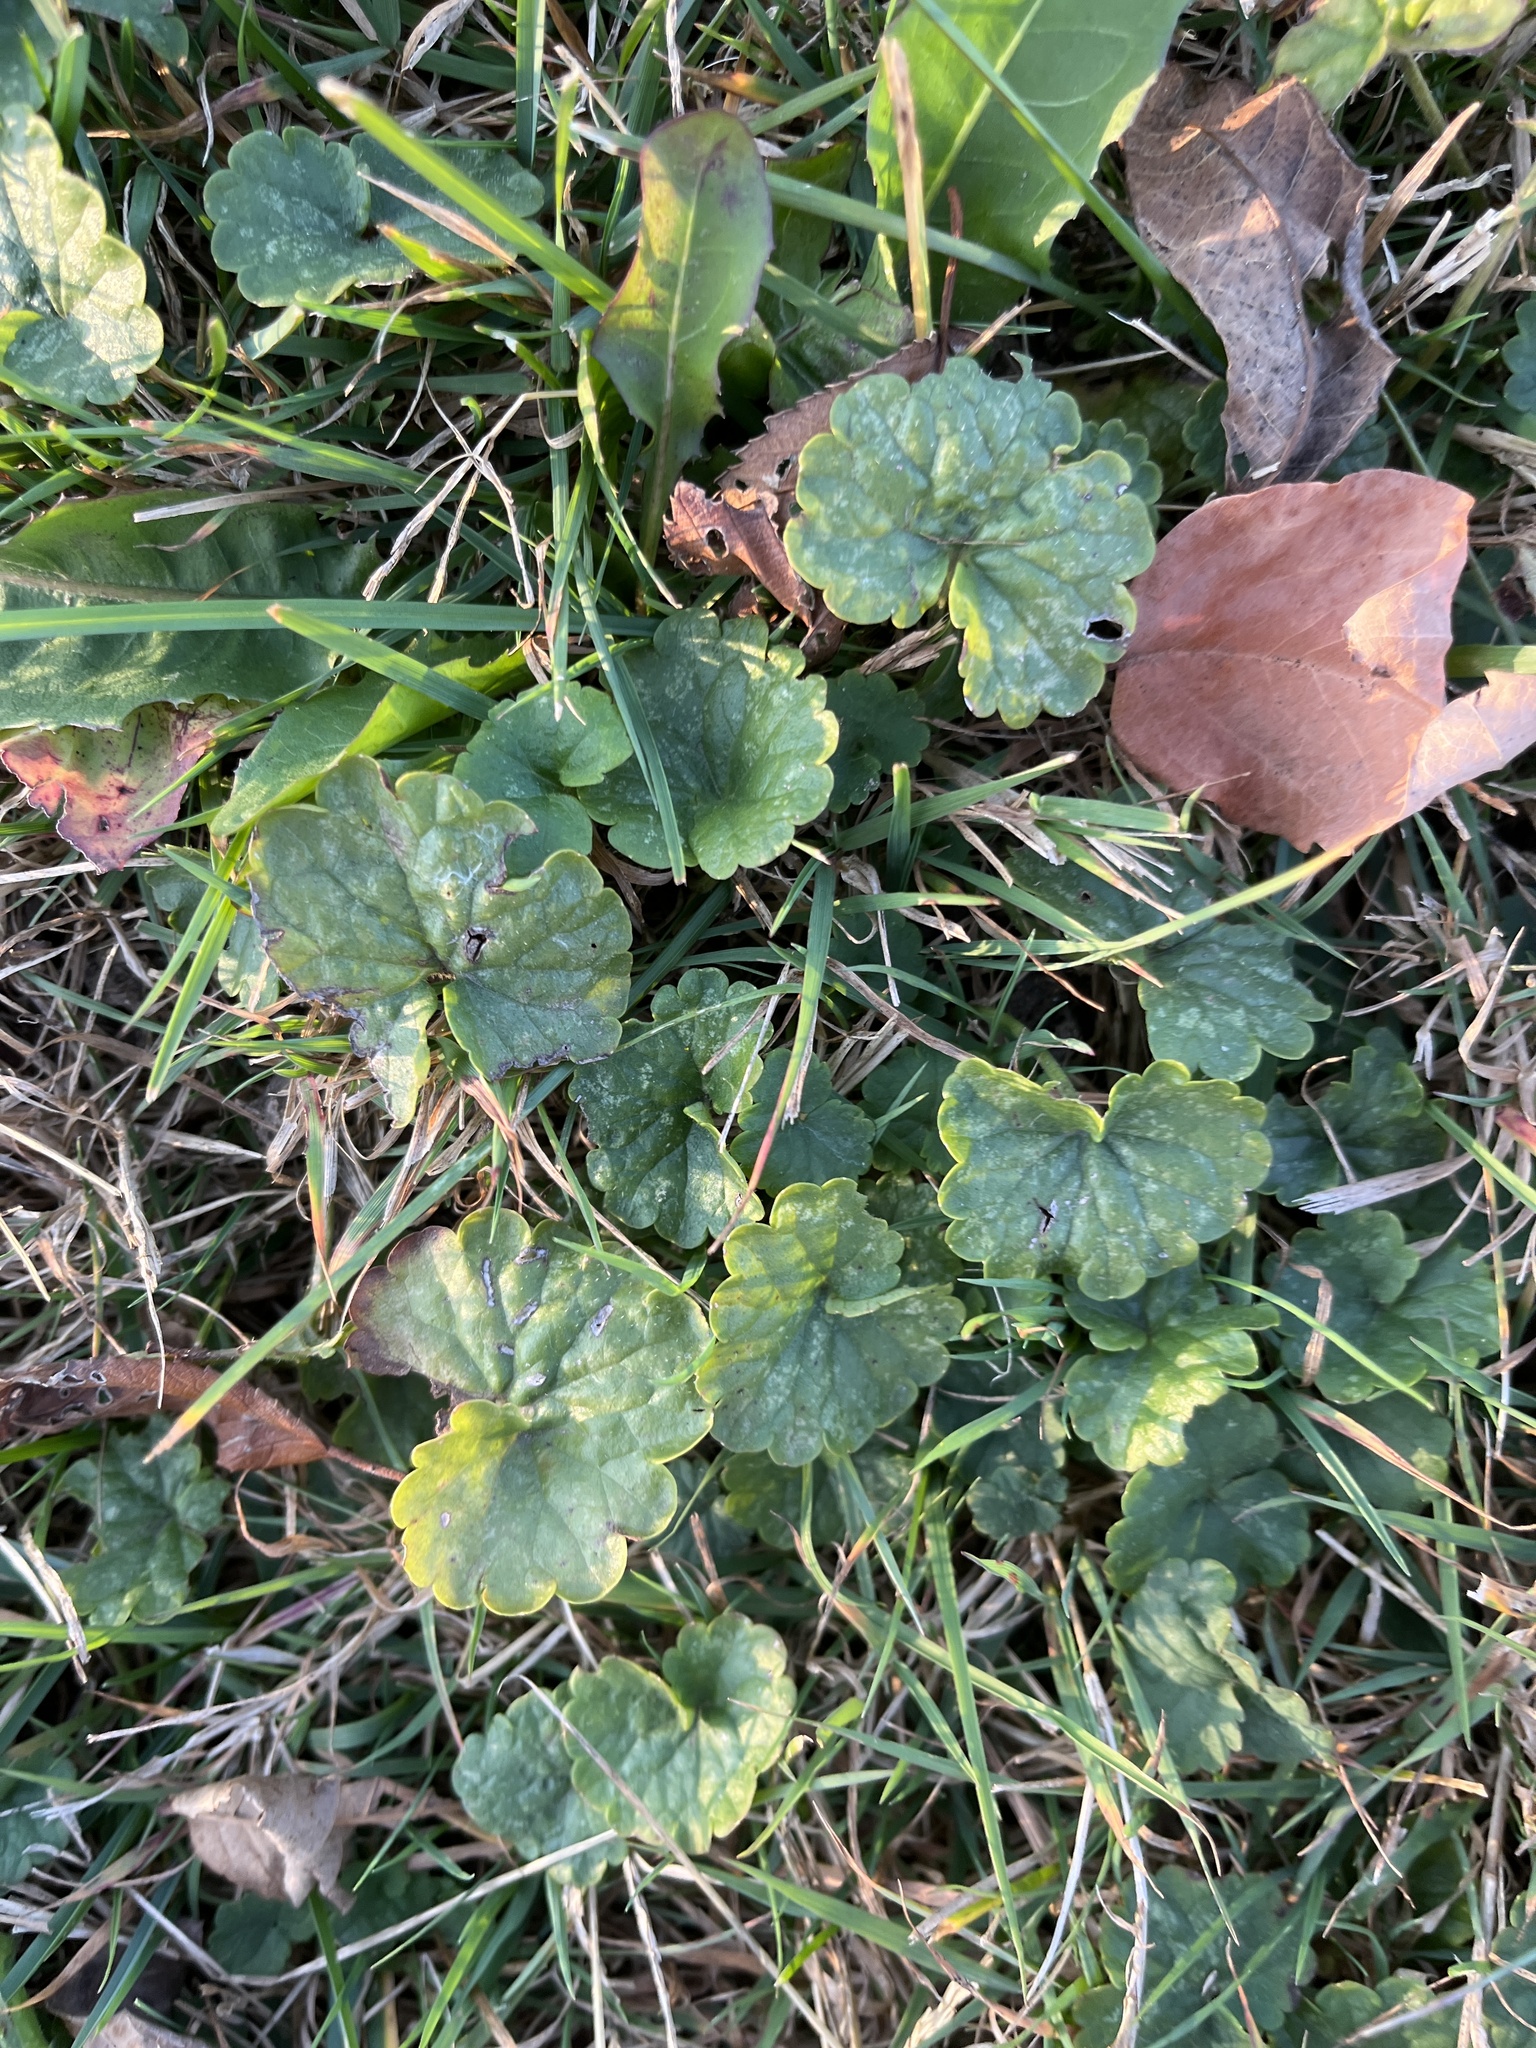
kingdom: Plantae
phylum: Tracheophyta
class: Magnoliopsida
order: Lamiales
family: Lamiaceae
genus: Glechoma
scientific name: Glechoma hederacea
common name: Ground ivy
